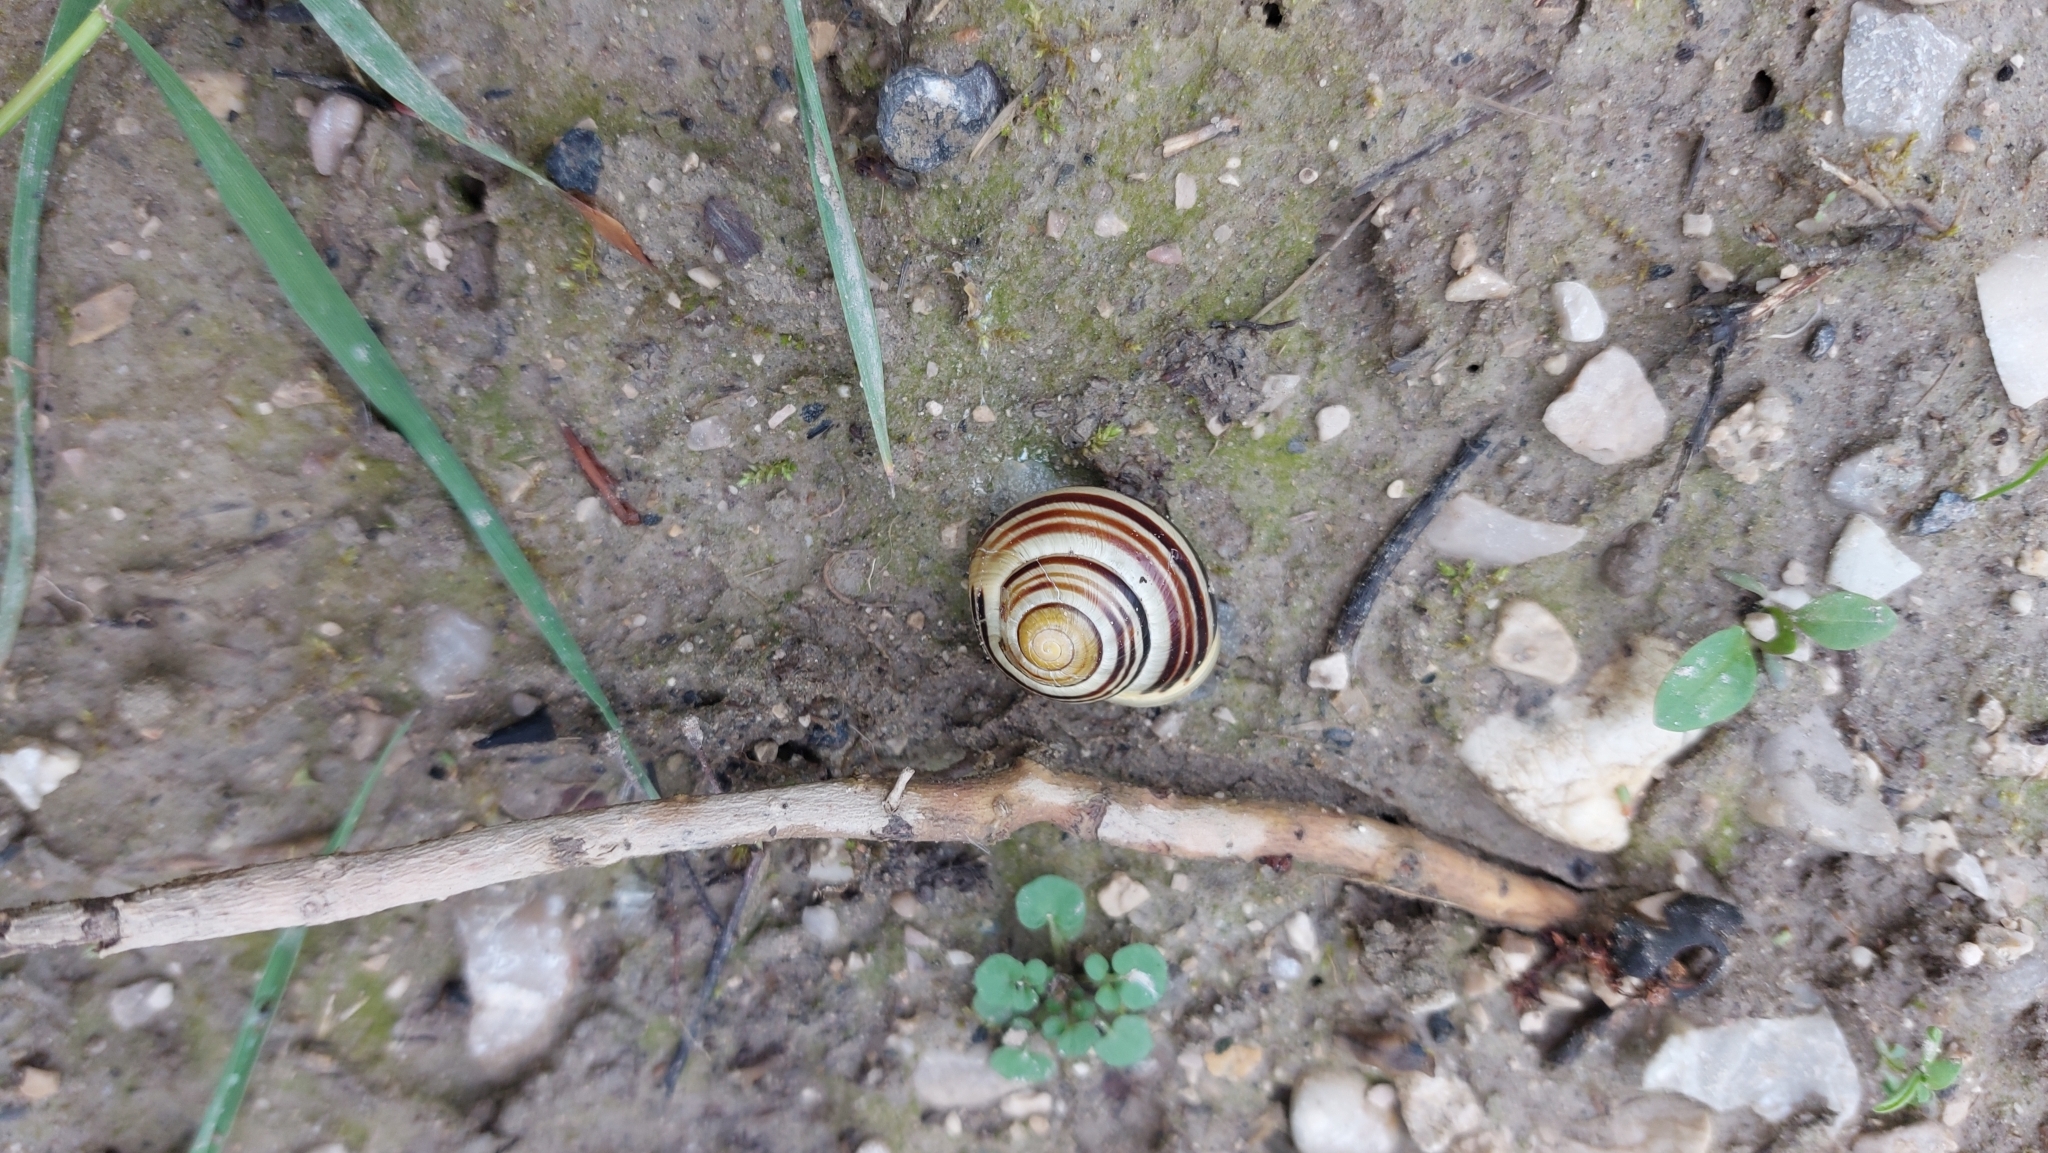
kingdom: Animalia
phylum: Mollusca
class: Gastropoda
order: Stylommatophora
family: Helicidae
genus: Cepaea
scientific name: Cepaea hortensis
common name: White-lip gardensnail
